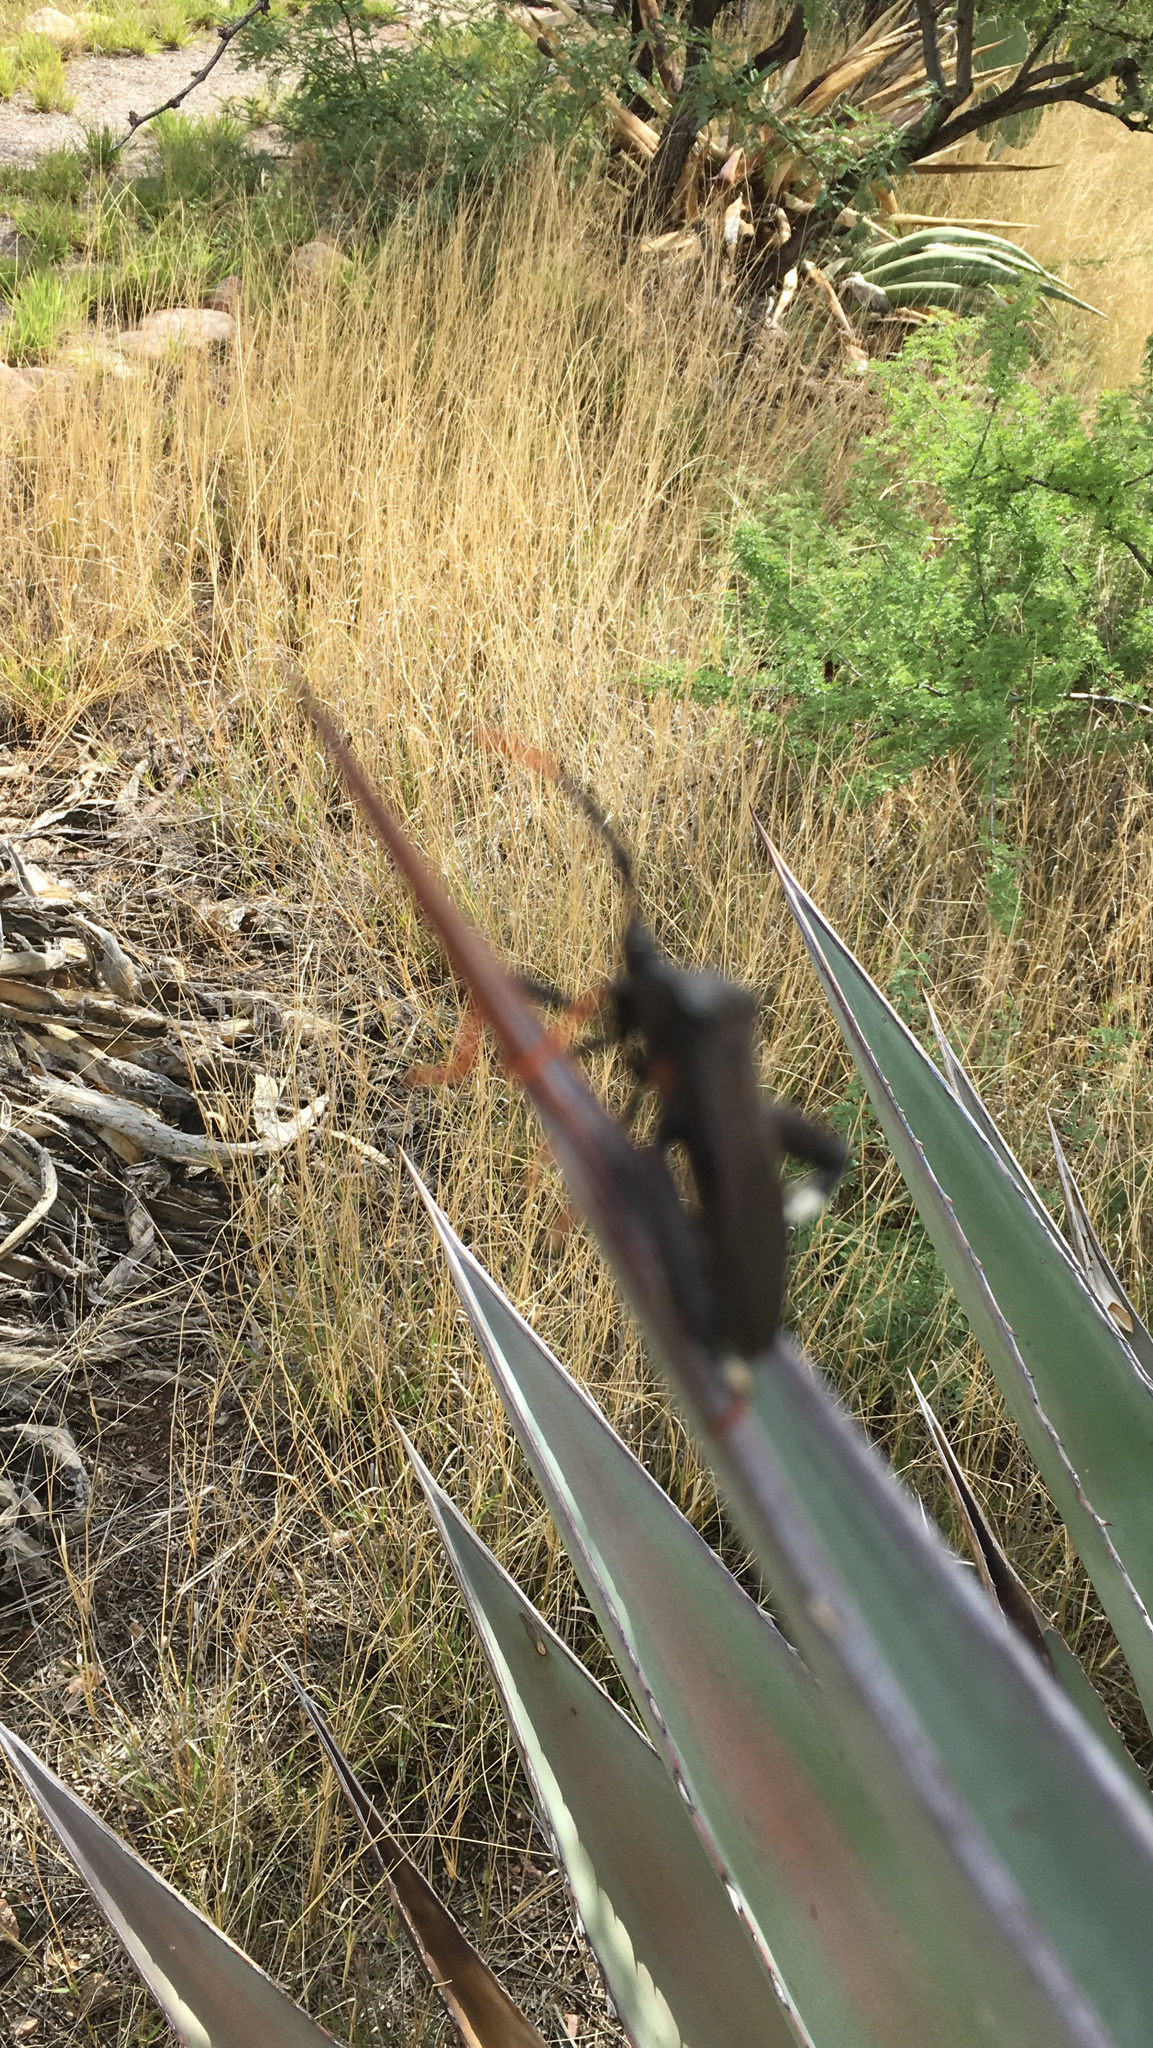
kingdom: Animalia
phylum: Arthropoda
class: Insecta
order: Hemiptera
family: Coreidae
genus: Acanthocephala
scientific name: Acanthocephala thomasi
